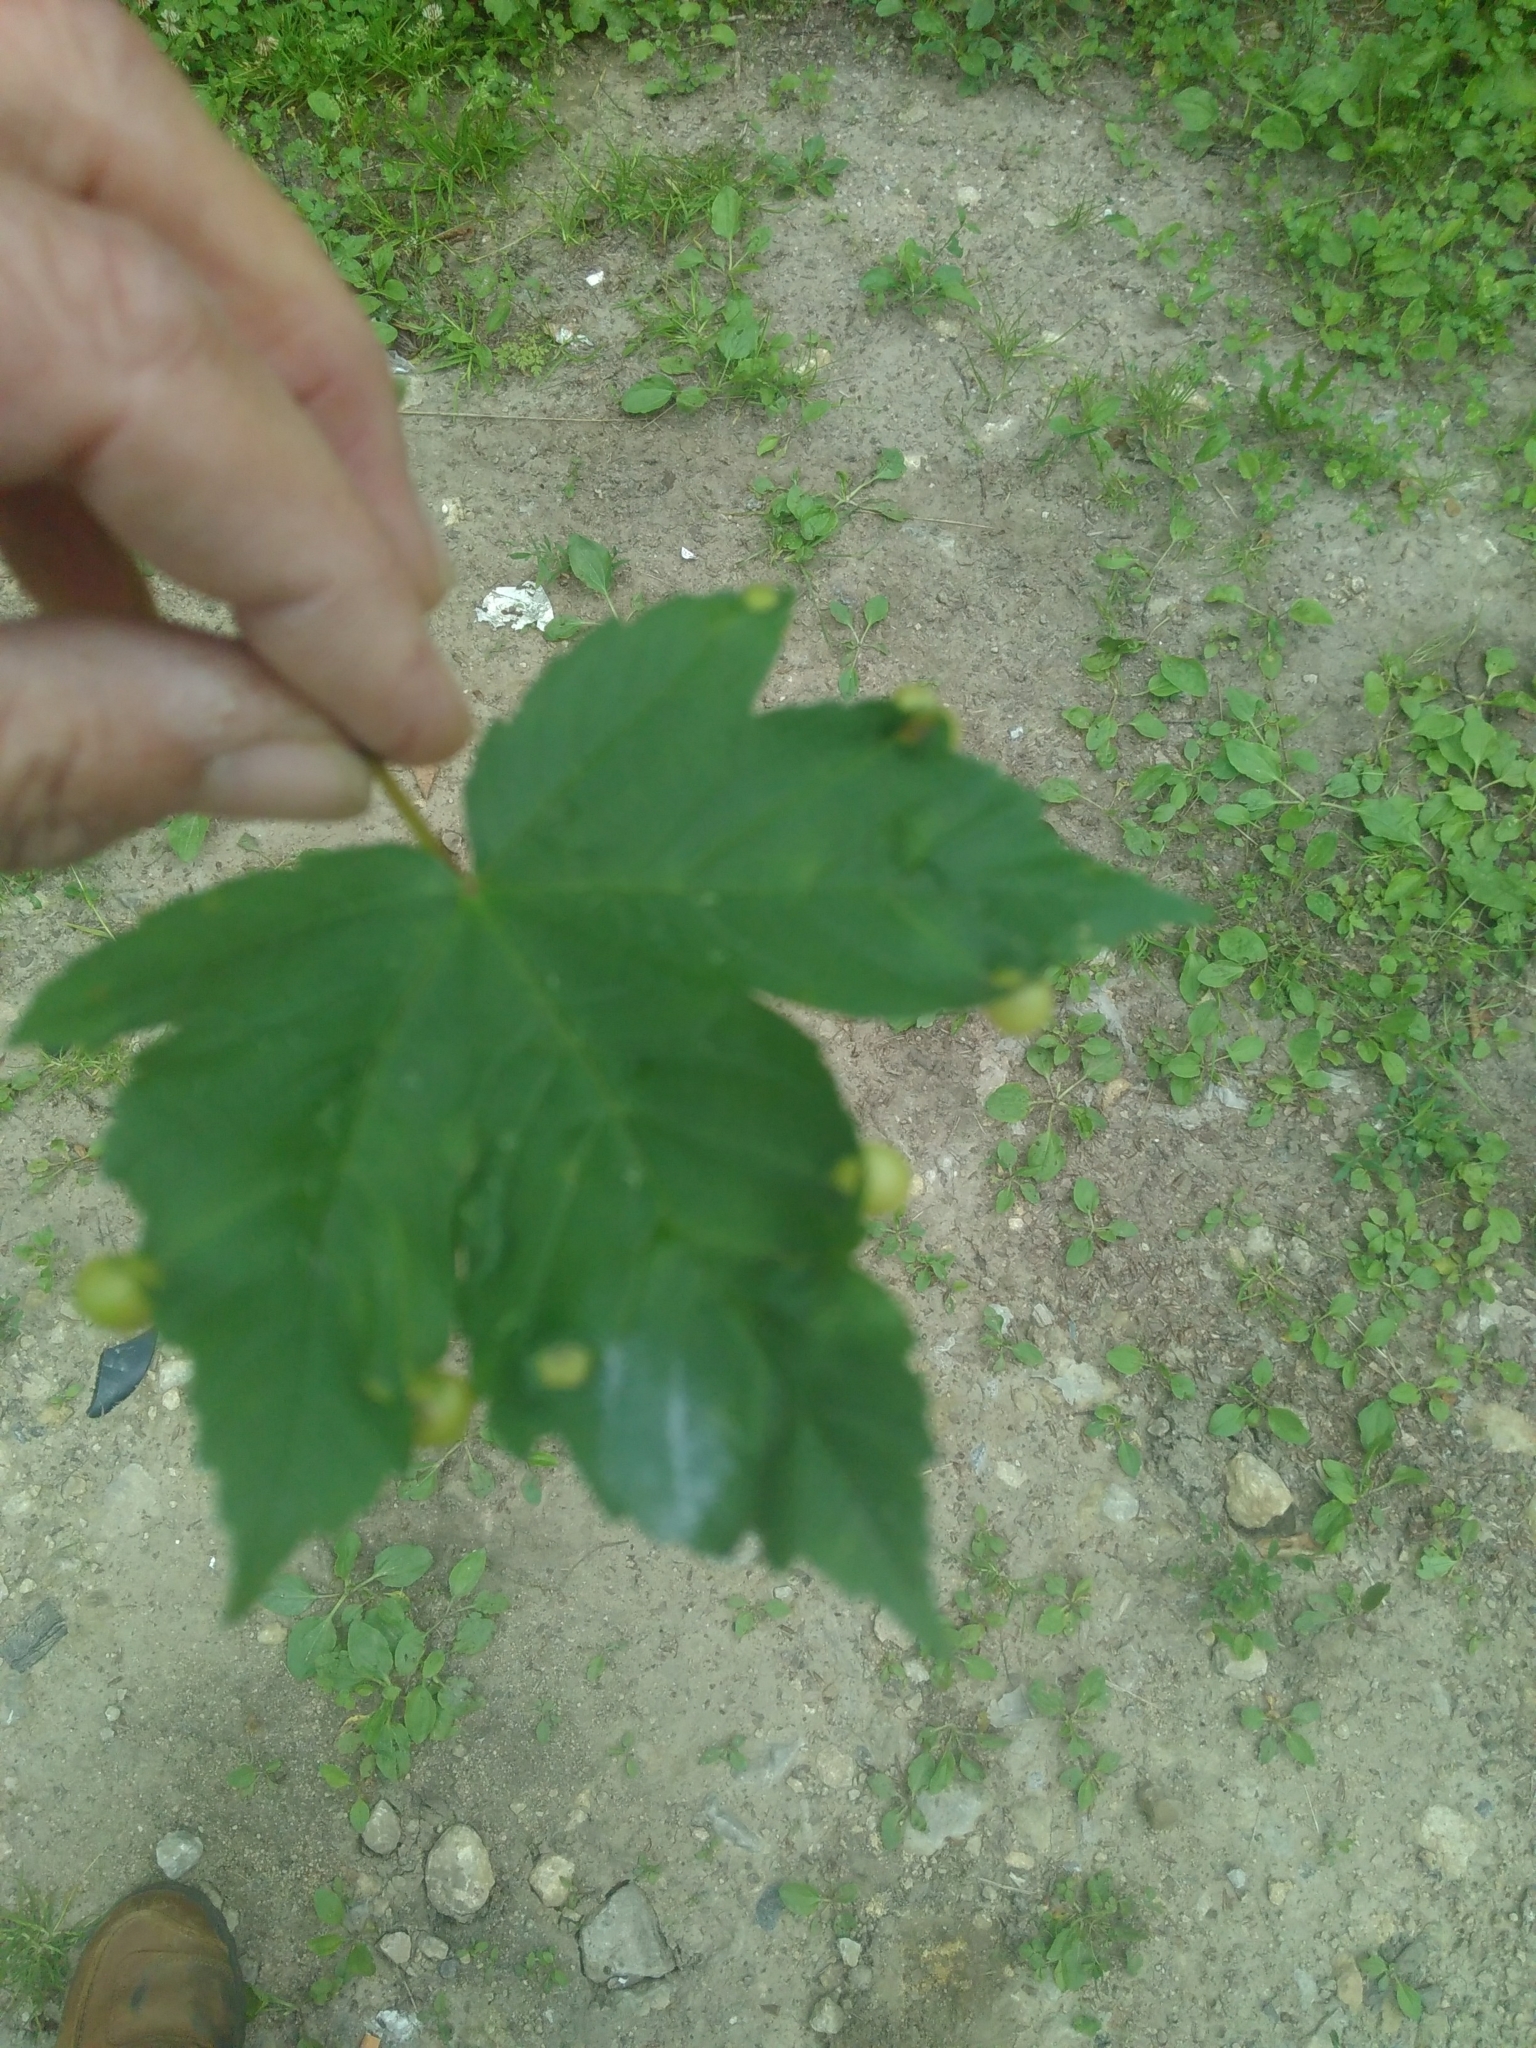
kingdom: Plantae
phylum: Tracheophyta
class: Magnoliopsida
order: Sapindales
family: Sapindaceae
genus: Acer
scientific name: Acer pseudoplatanus
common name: Sycamore
